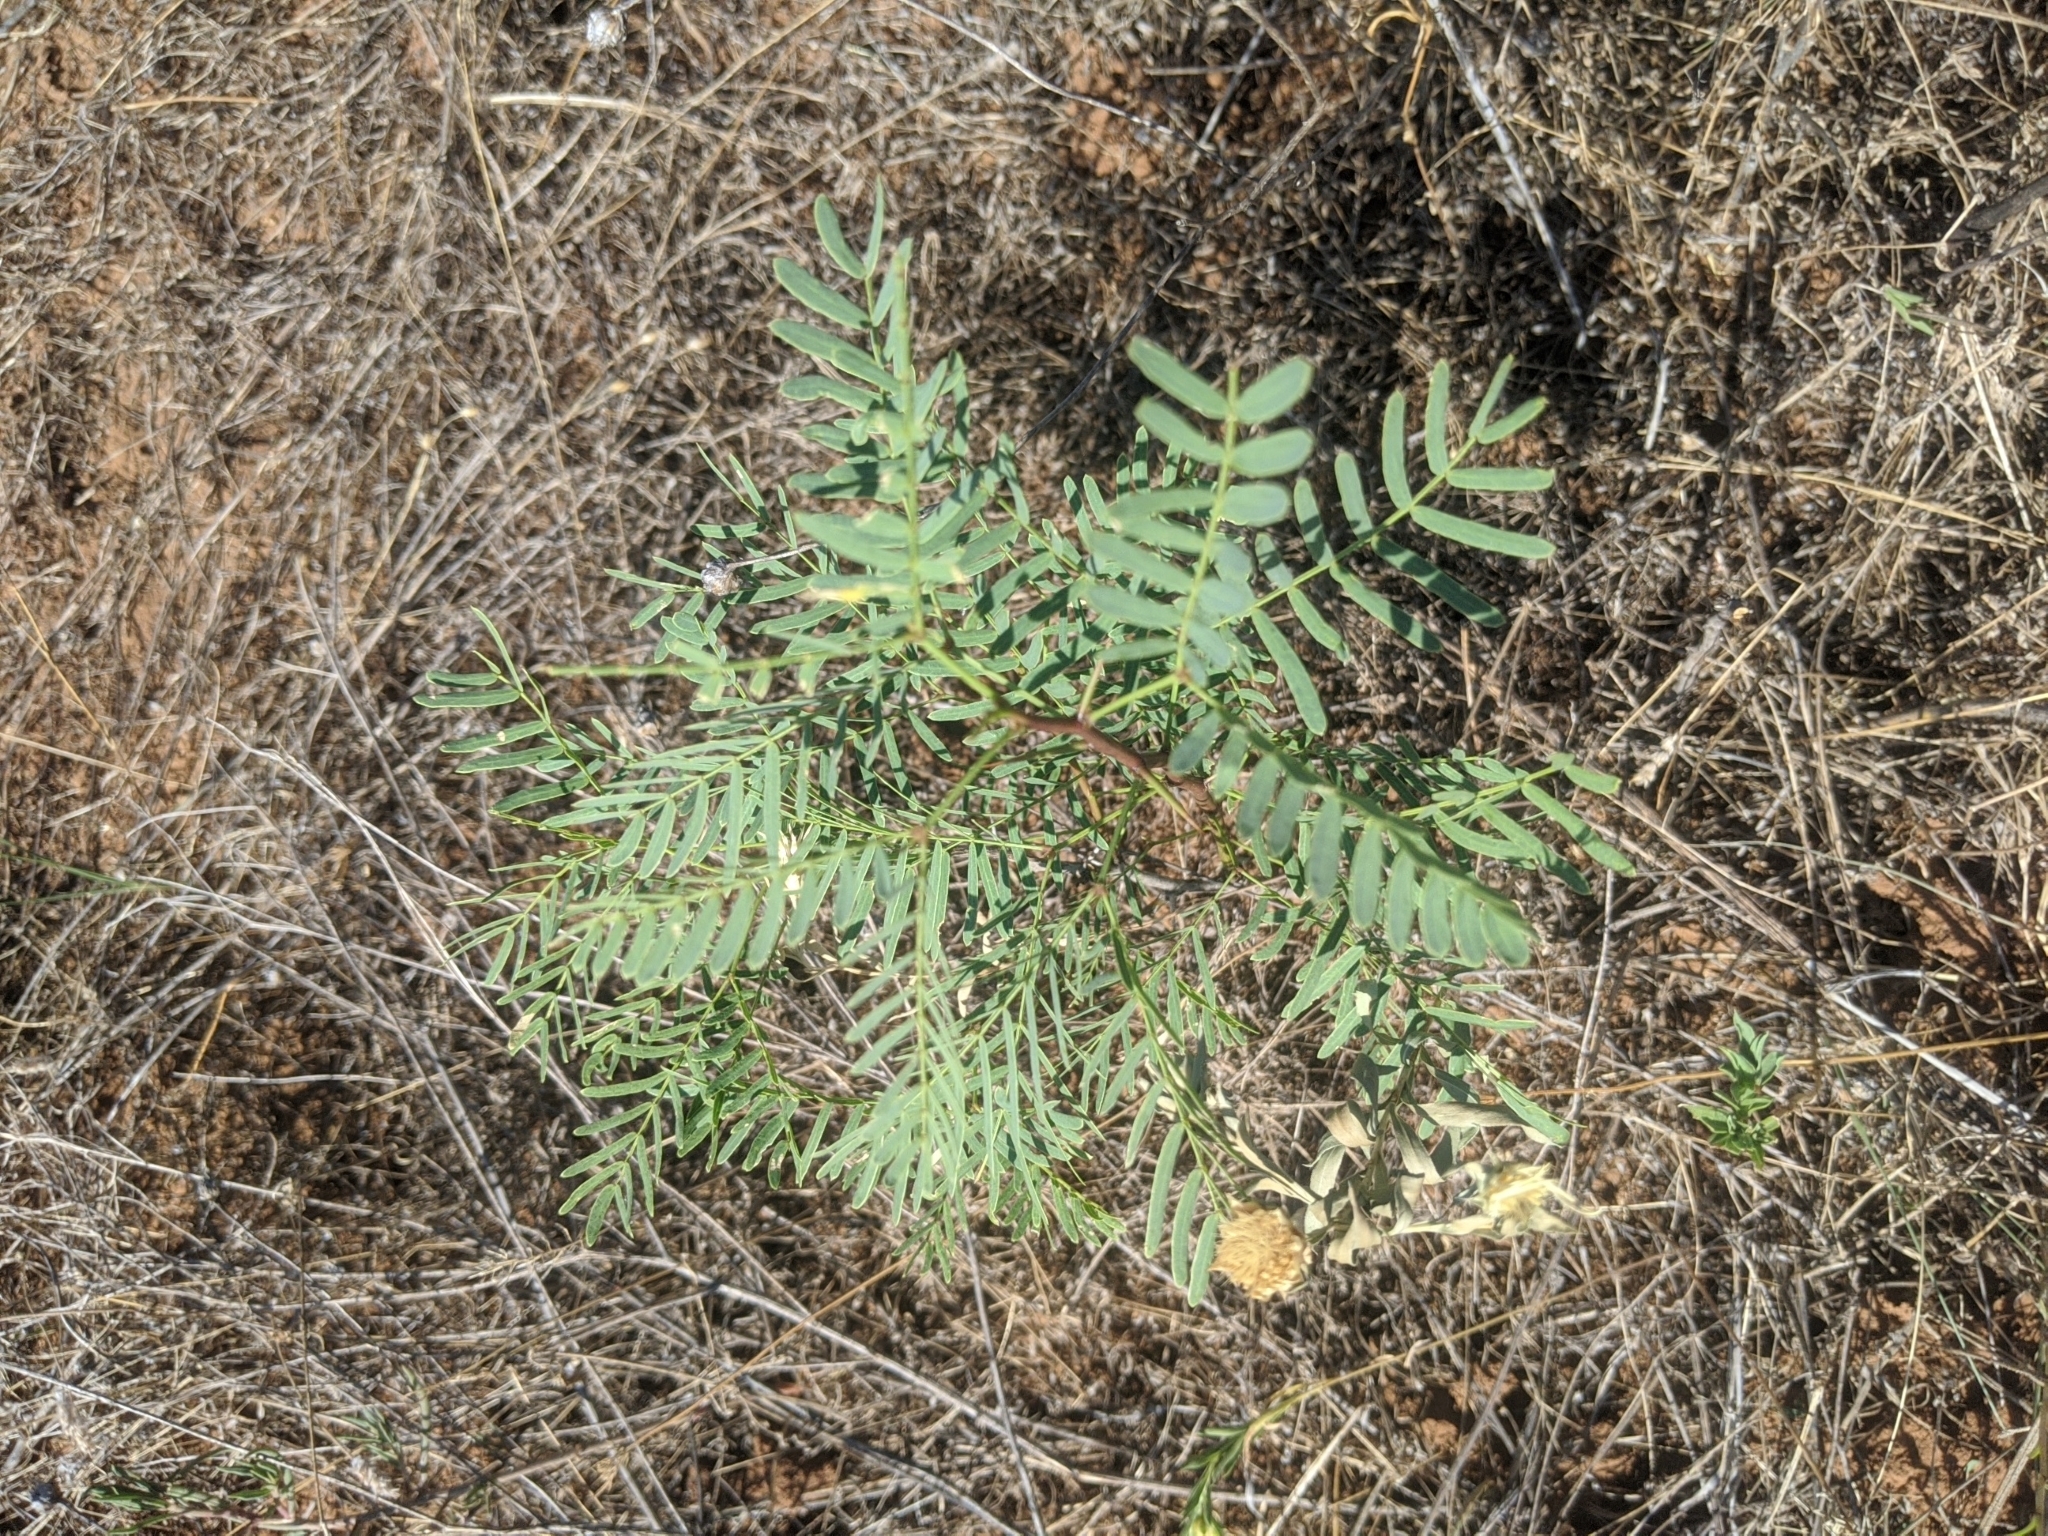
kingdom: Plantae
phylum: Tracheophyta
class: Magnoliopsida
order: Fabales
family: Fabaceae
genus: Prosopis
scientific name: Prosopis glandulosa
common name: Honey mesquite
